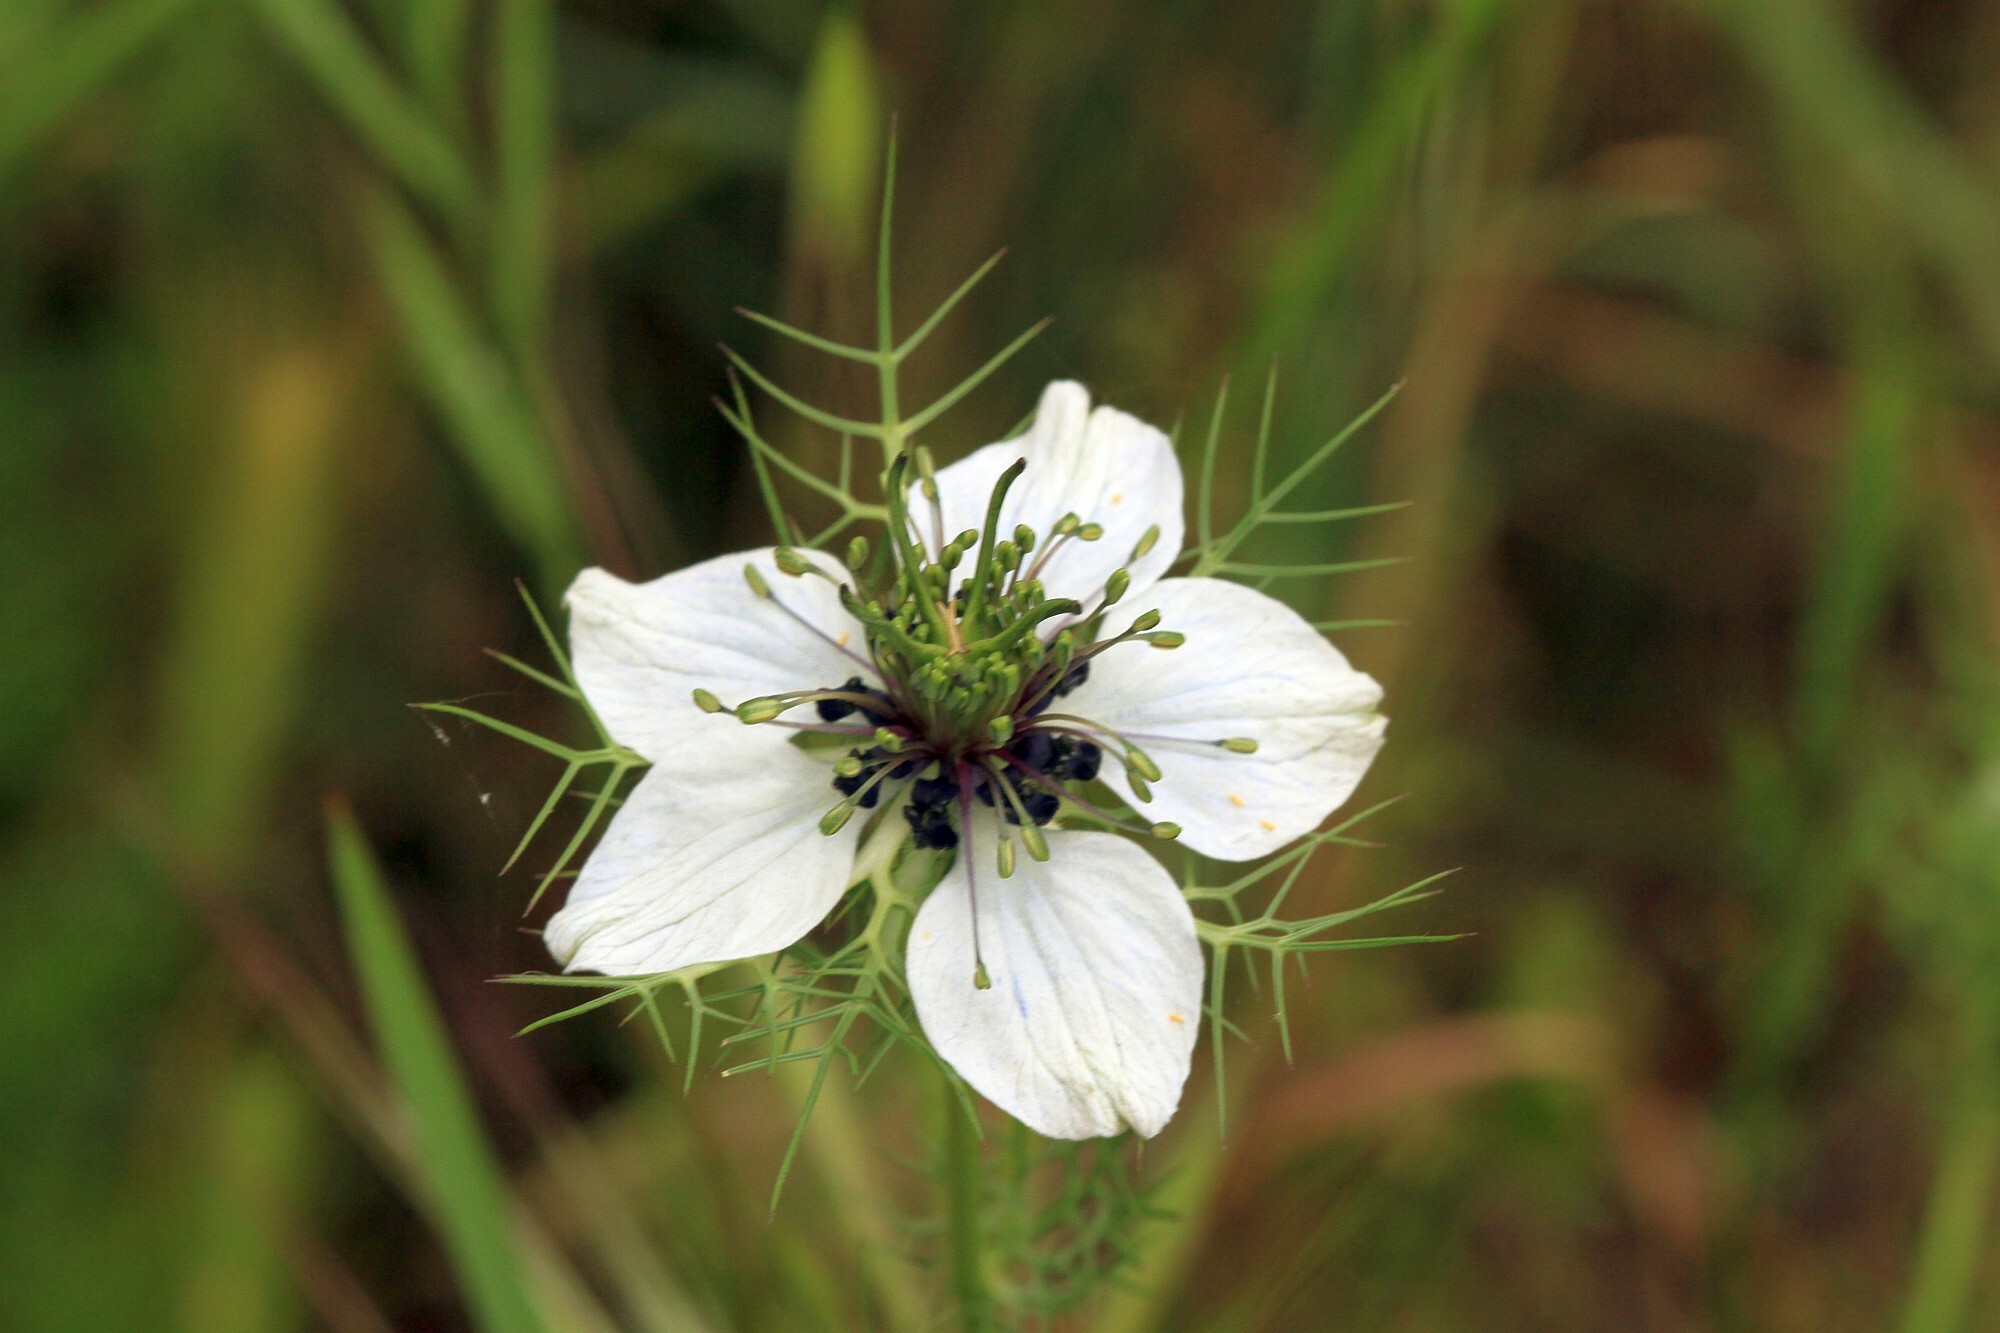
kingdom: Plantae
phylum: Tracheophyta
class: Magnoliopsida
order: Ranunculales
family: Ranunculaceae
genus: Nigella
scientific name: Nigella damascena
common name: Love-in-a-mist
